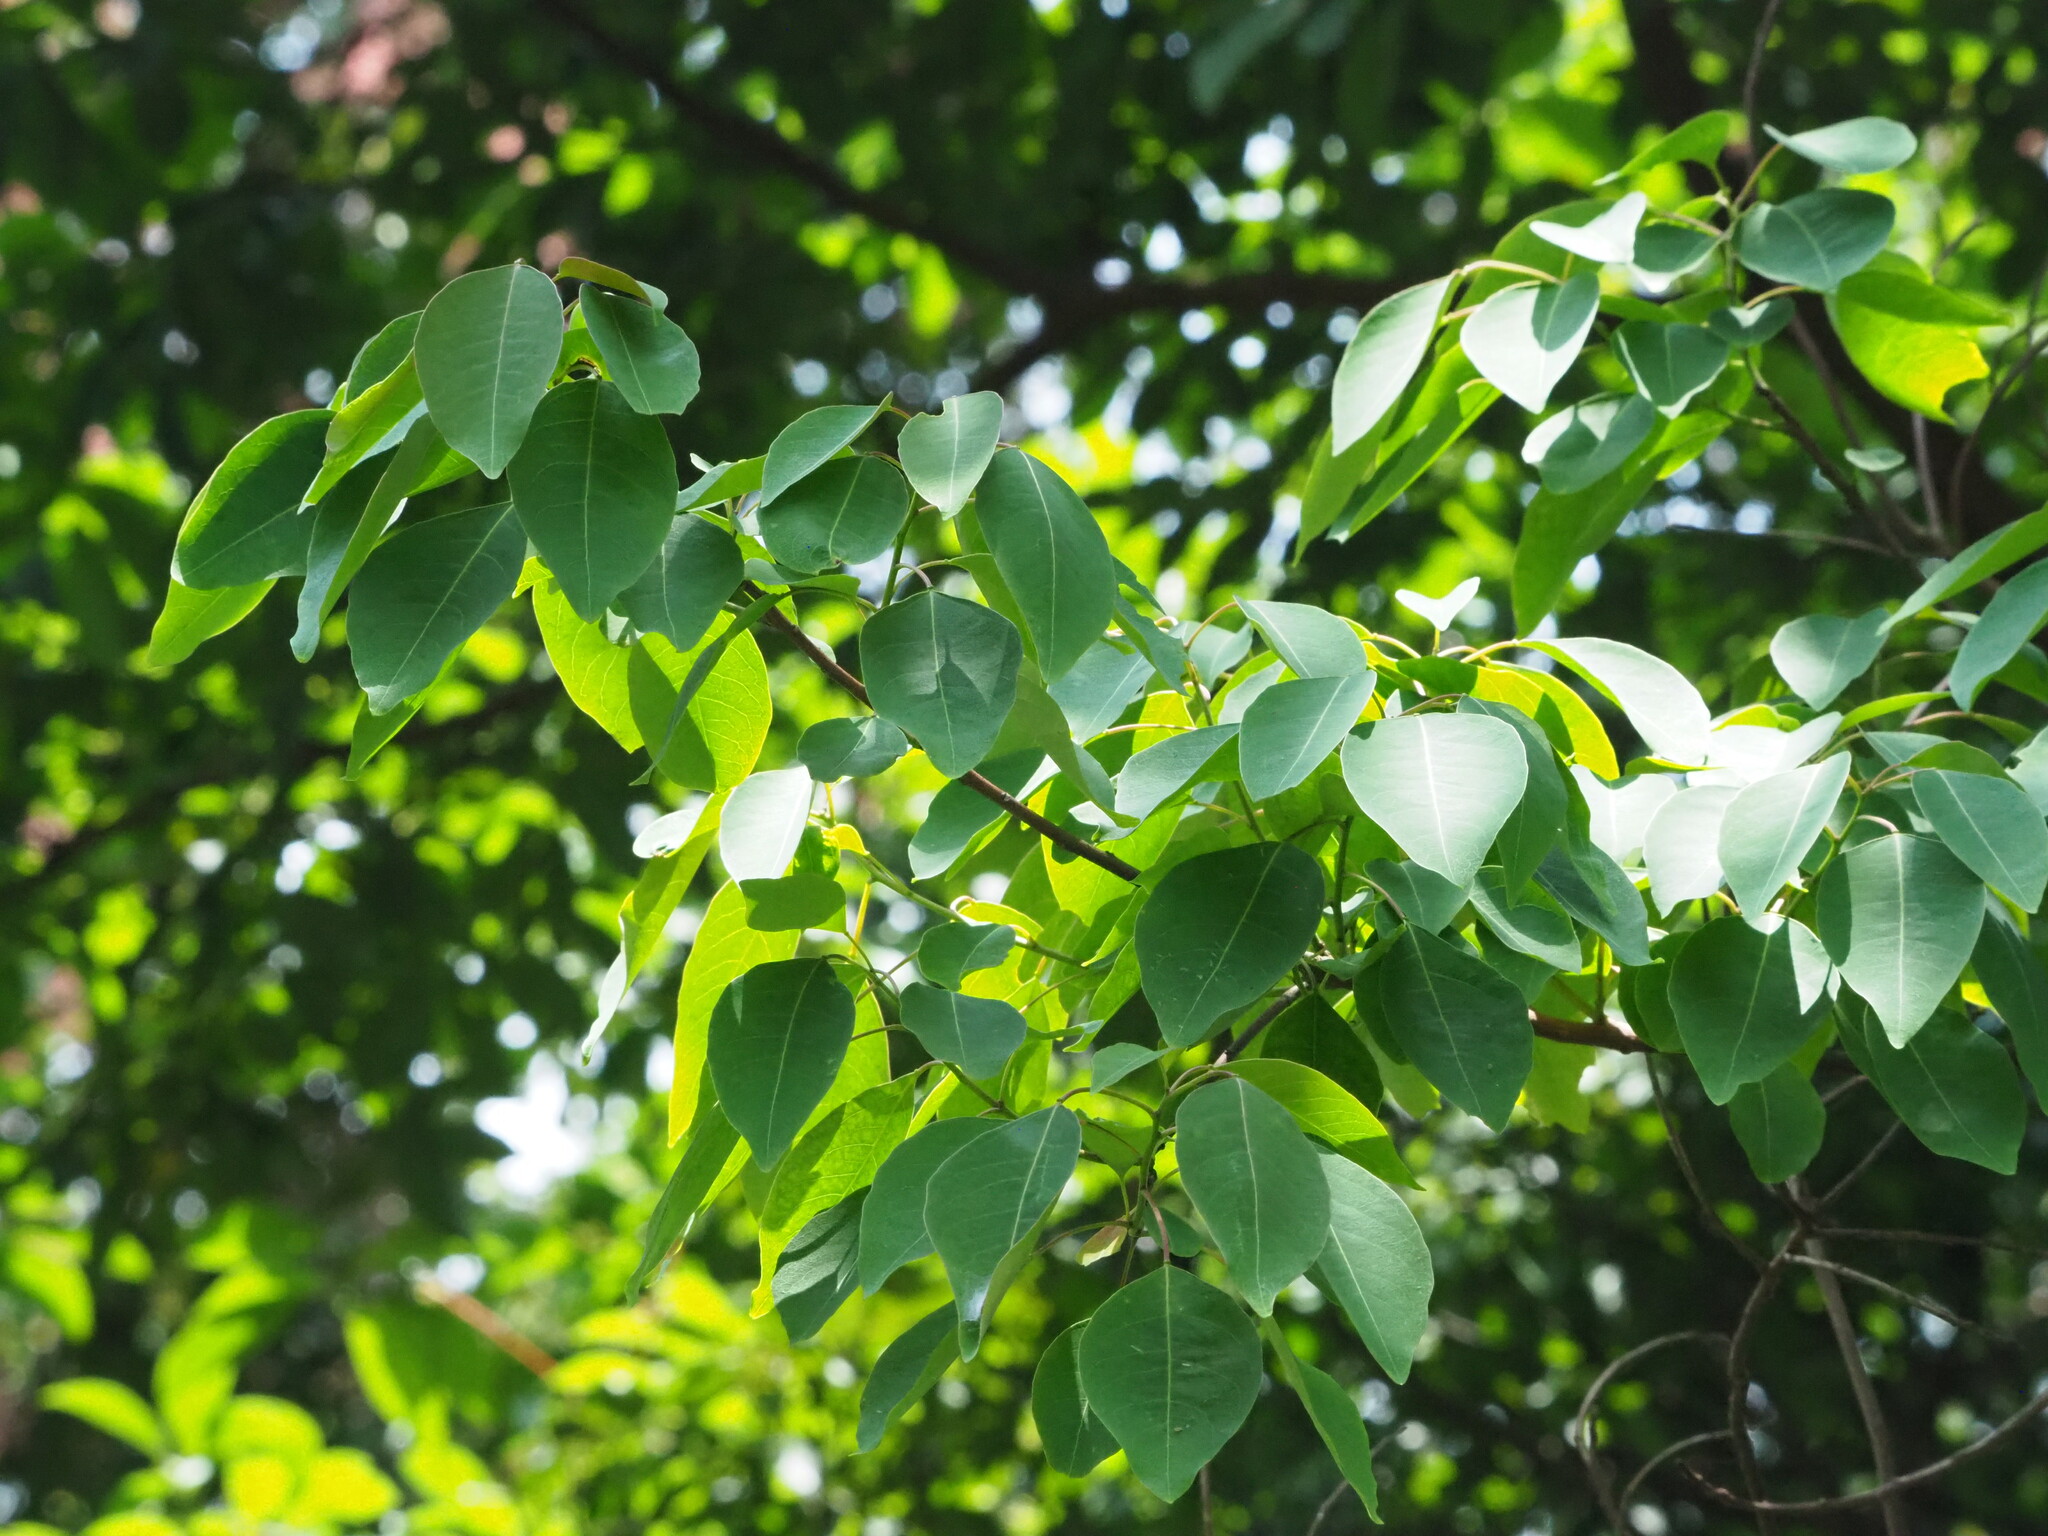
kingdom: Plantae
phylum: Tracheophyta
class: Magnoliopsida
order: Malpighiales
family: Euphorbiaceae
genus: Triadica
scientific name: Triadica cochinchinensis
